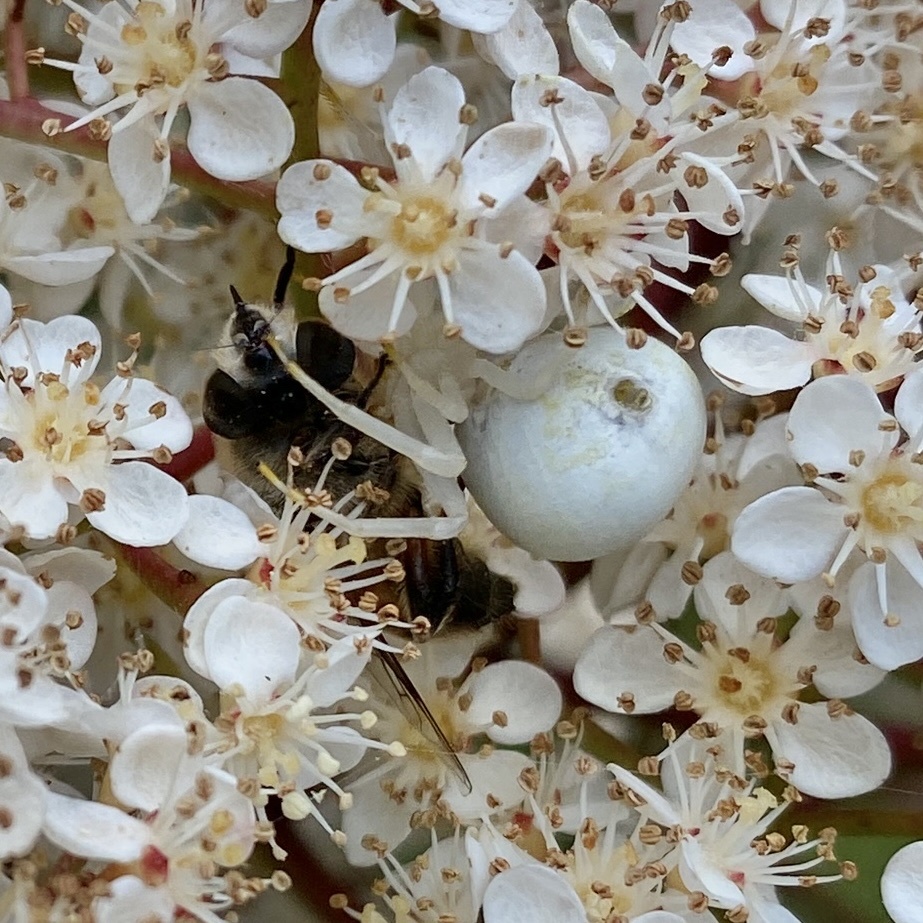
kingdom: Animalia
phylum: Arthropoda
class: Arachnida
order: Araneae
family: Thomisidae
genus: Misumena
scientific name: Misumena vatia
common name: Goldenrod crab spider
